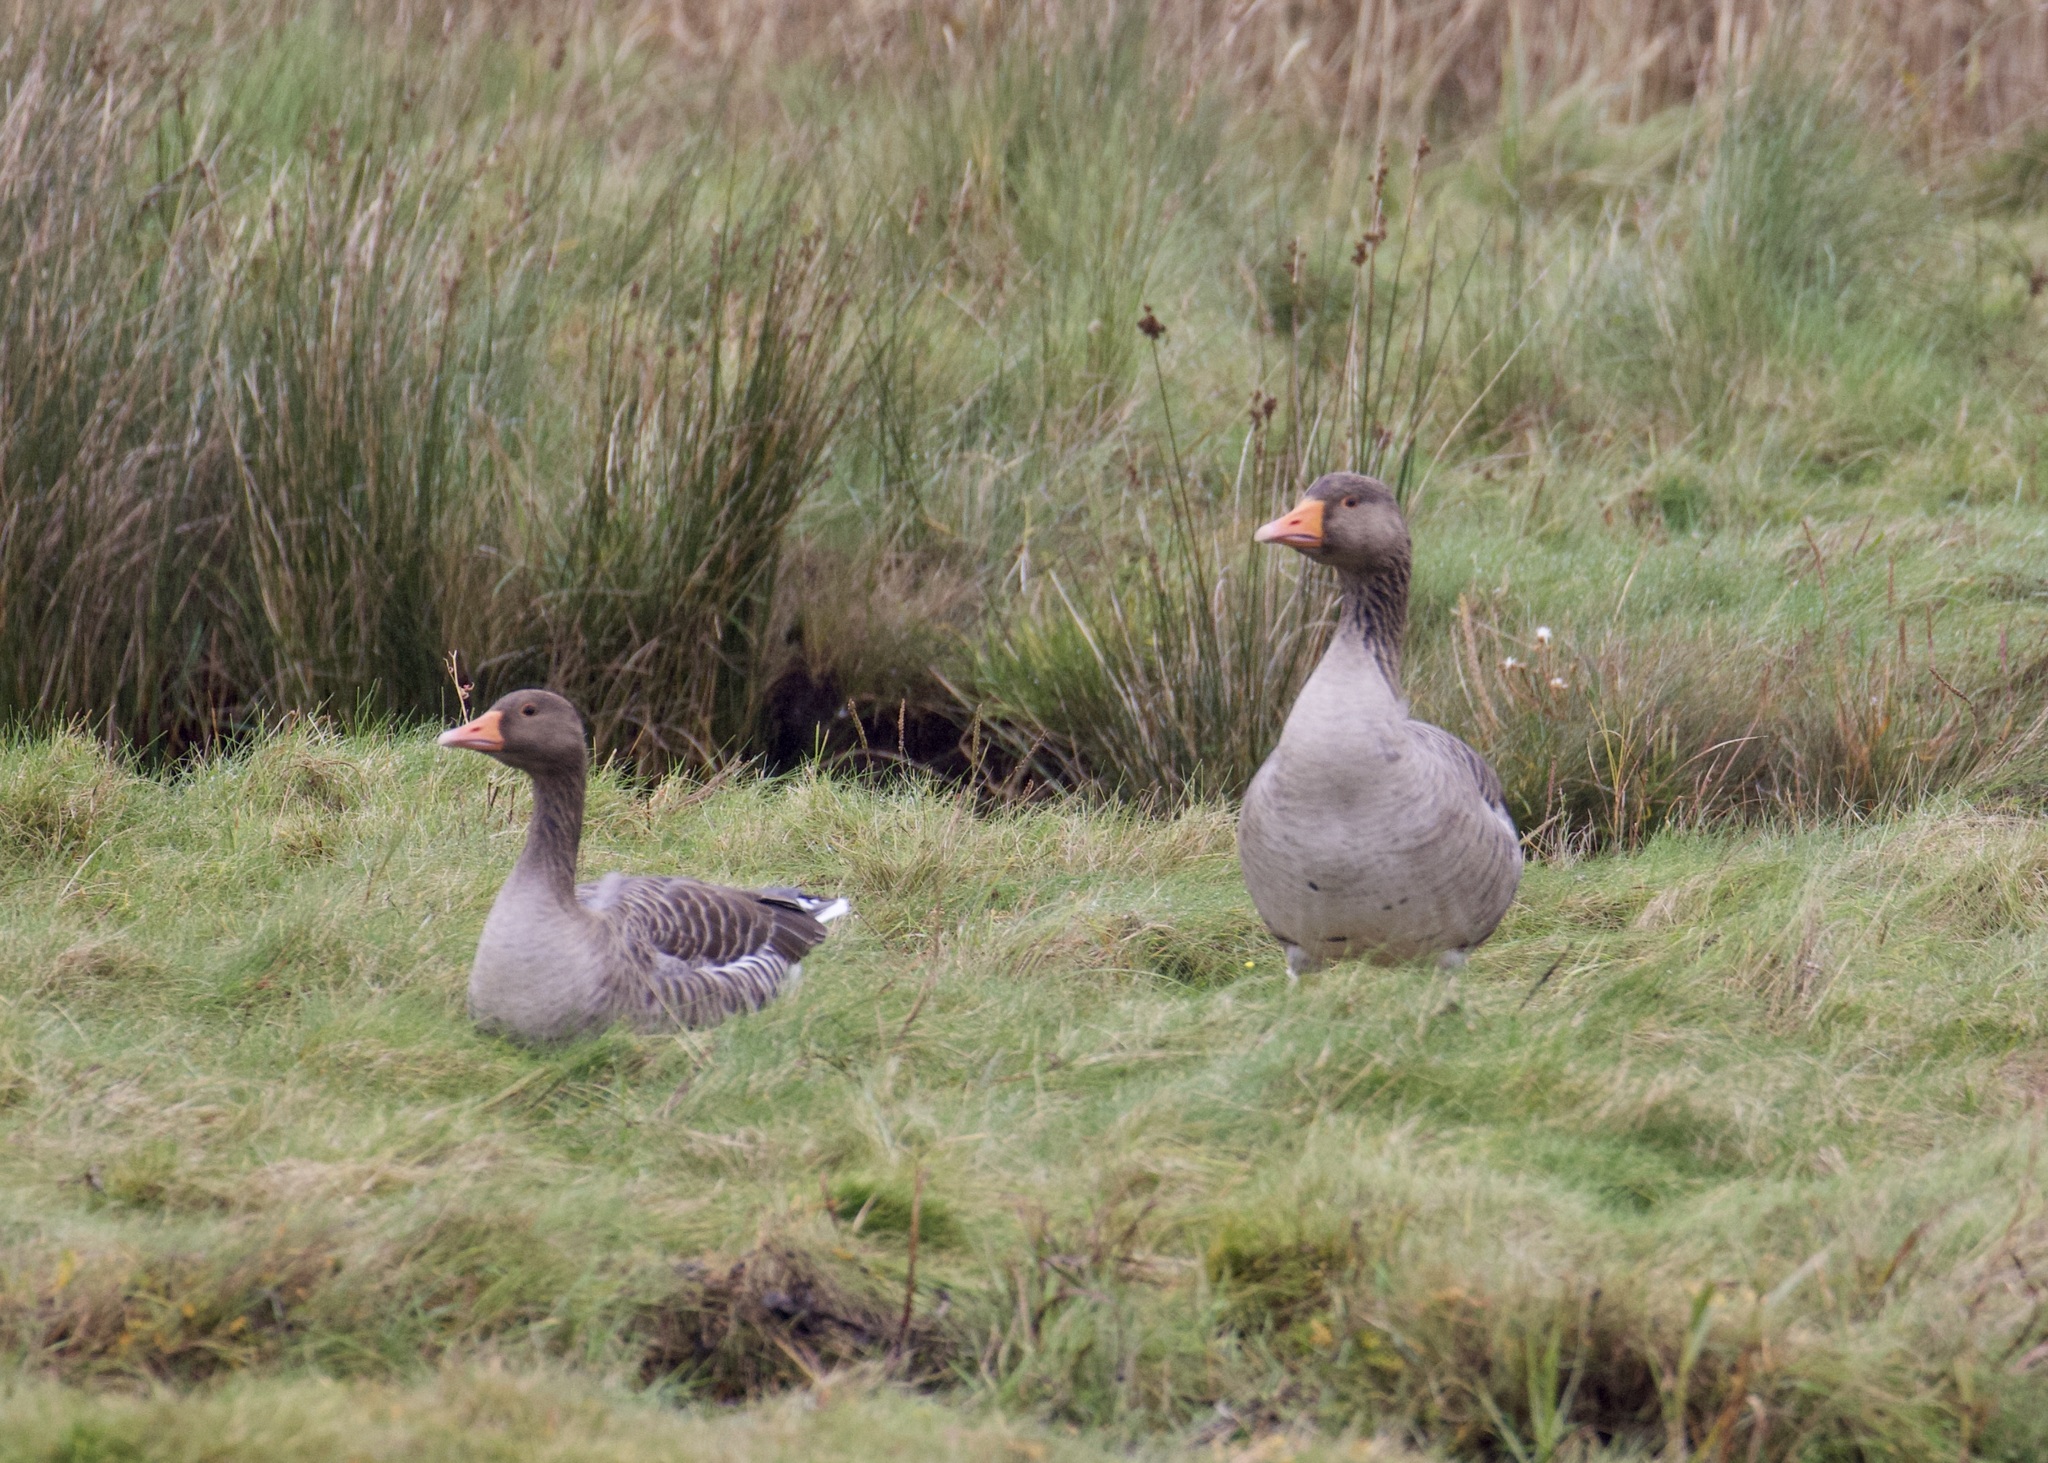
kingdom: Animalia
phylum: Chordata
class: Aves
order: Anseriformes
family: Anatidae
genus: Anser
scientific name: Anser anser
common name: Greylag goose
